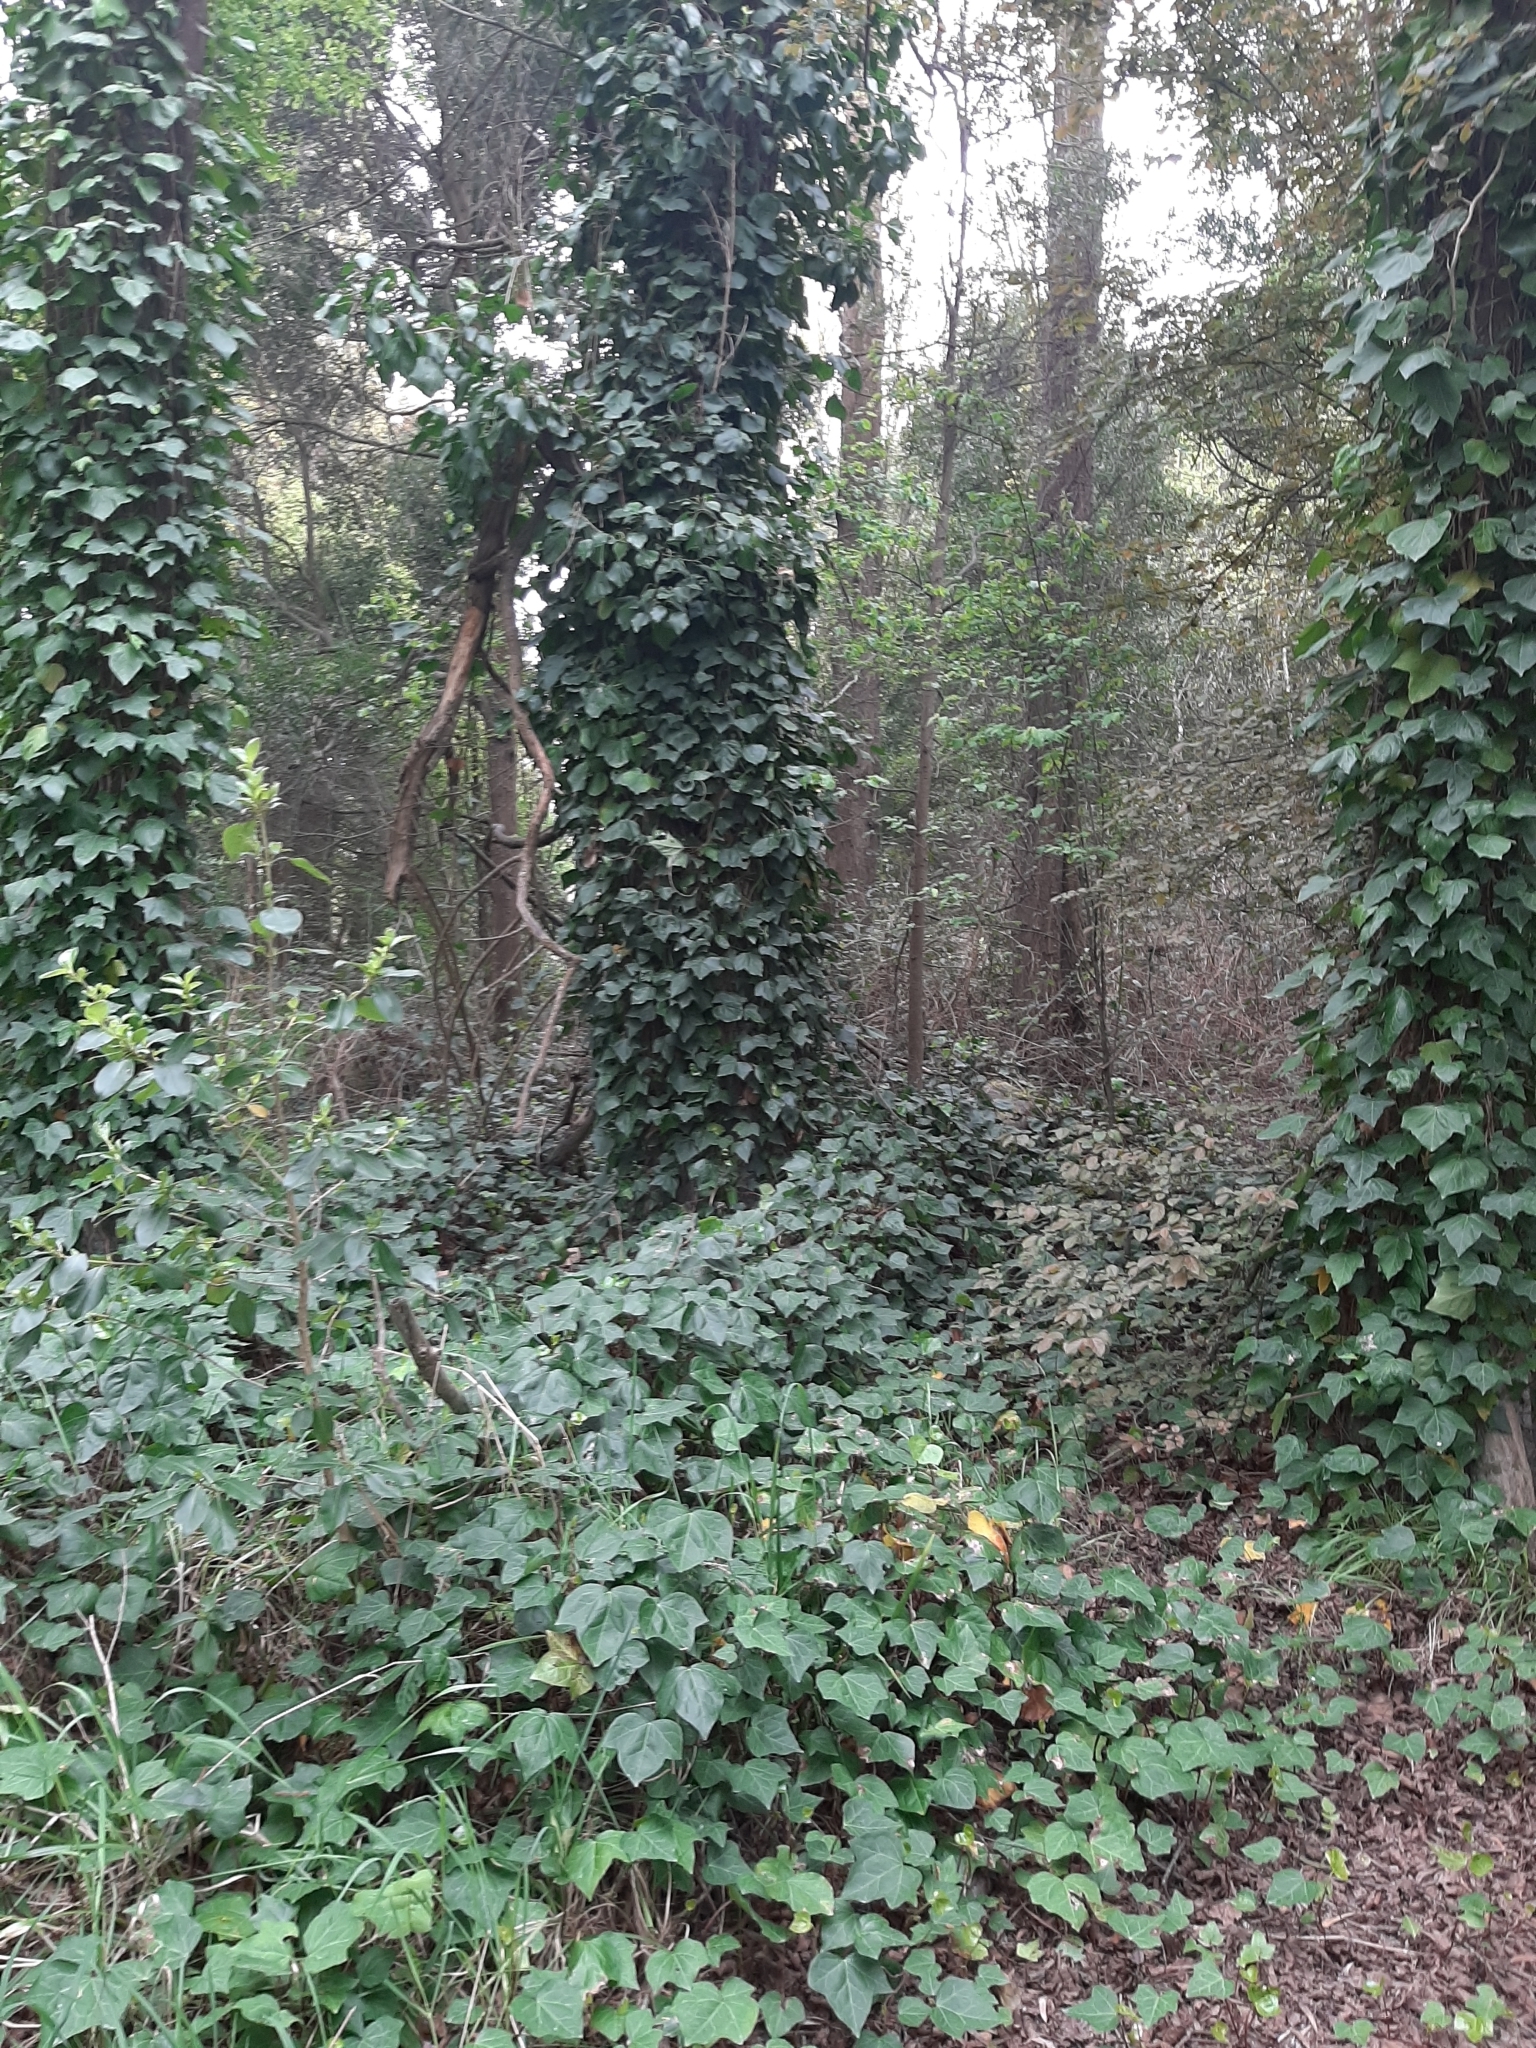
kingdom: Plantae
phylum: Tracheophyta
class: Magnoliopsida
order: Apiales
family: Araliaceae
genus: Hedera
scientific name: Hedera helix
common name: Ivy
